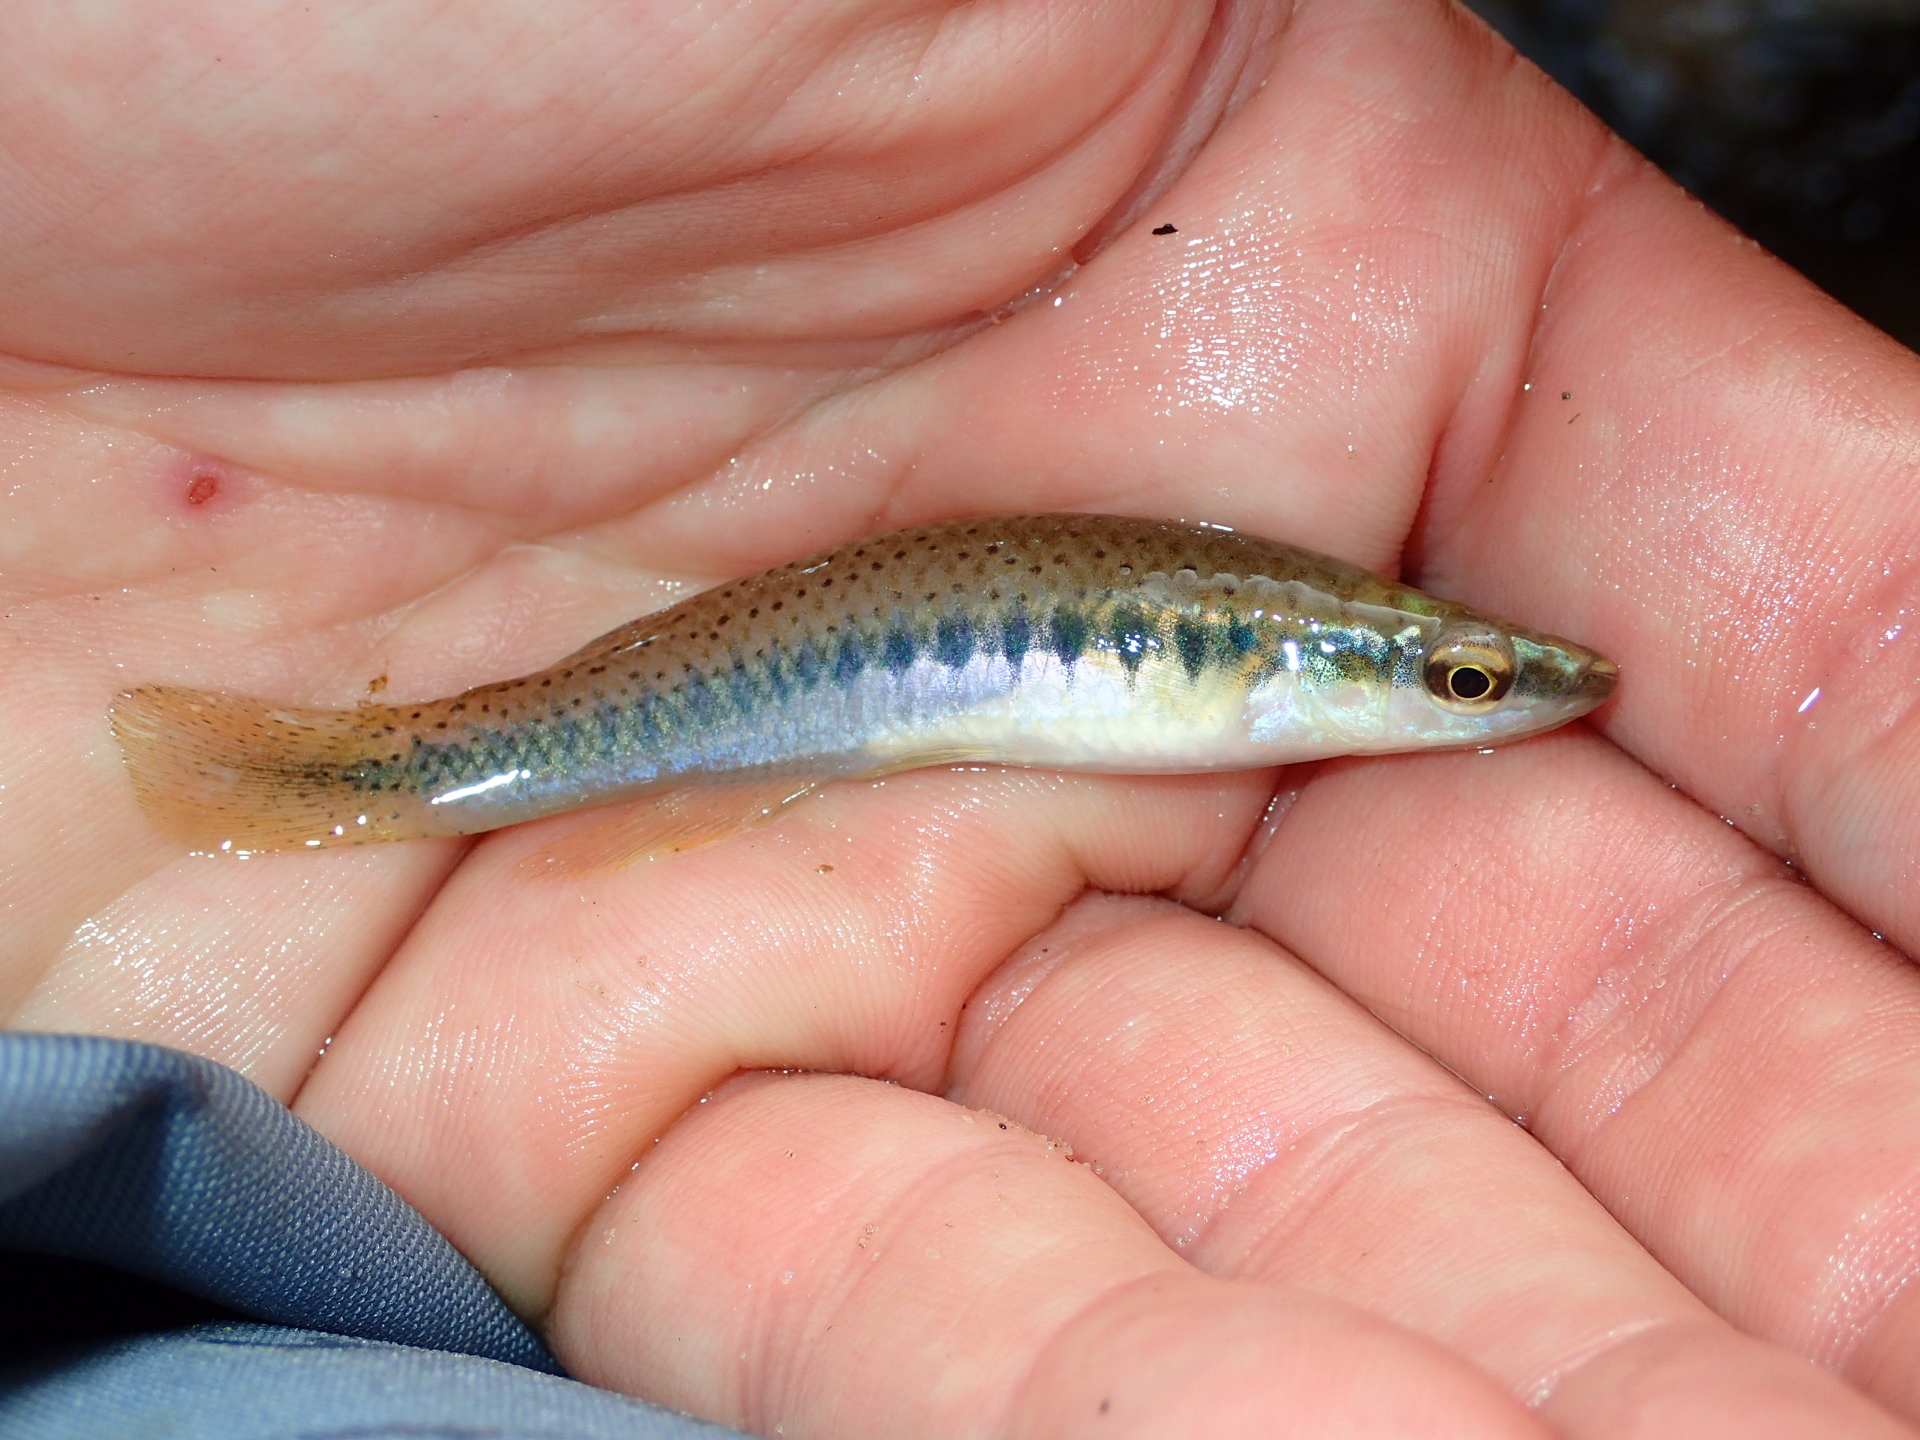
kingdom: Animalia
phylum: Chordata
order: Cyprinodontiformes
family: Fundulidae
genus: Fundulus
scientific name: Fundulus olivaceus
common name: Blackspotted topminnow
